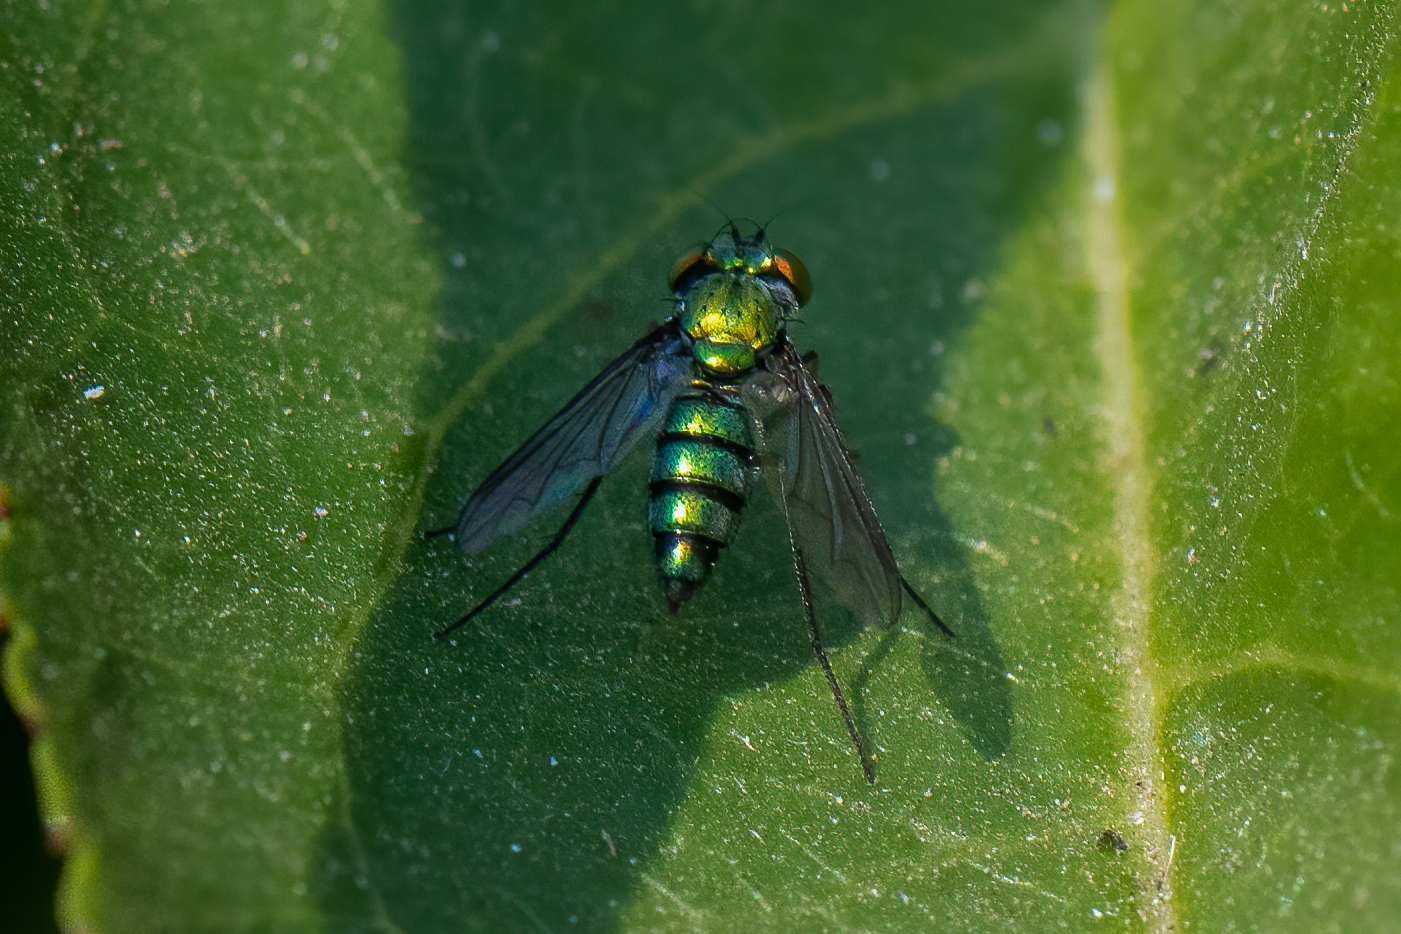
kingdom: Animalia
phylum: Arthropoda
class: Insecta
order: Diptera
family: Dolichopodidae
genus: Condylostylus
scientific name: Condylostylus longicornis
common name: Long-legged fly
